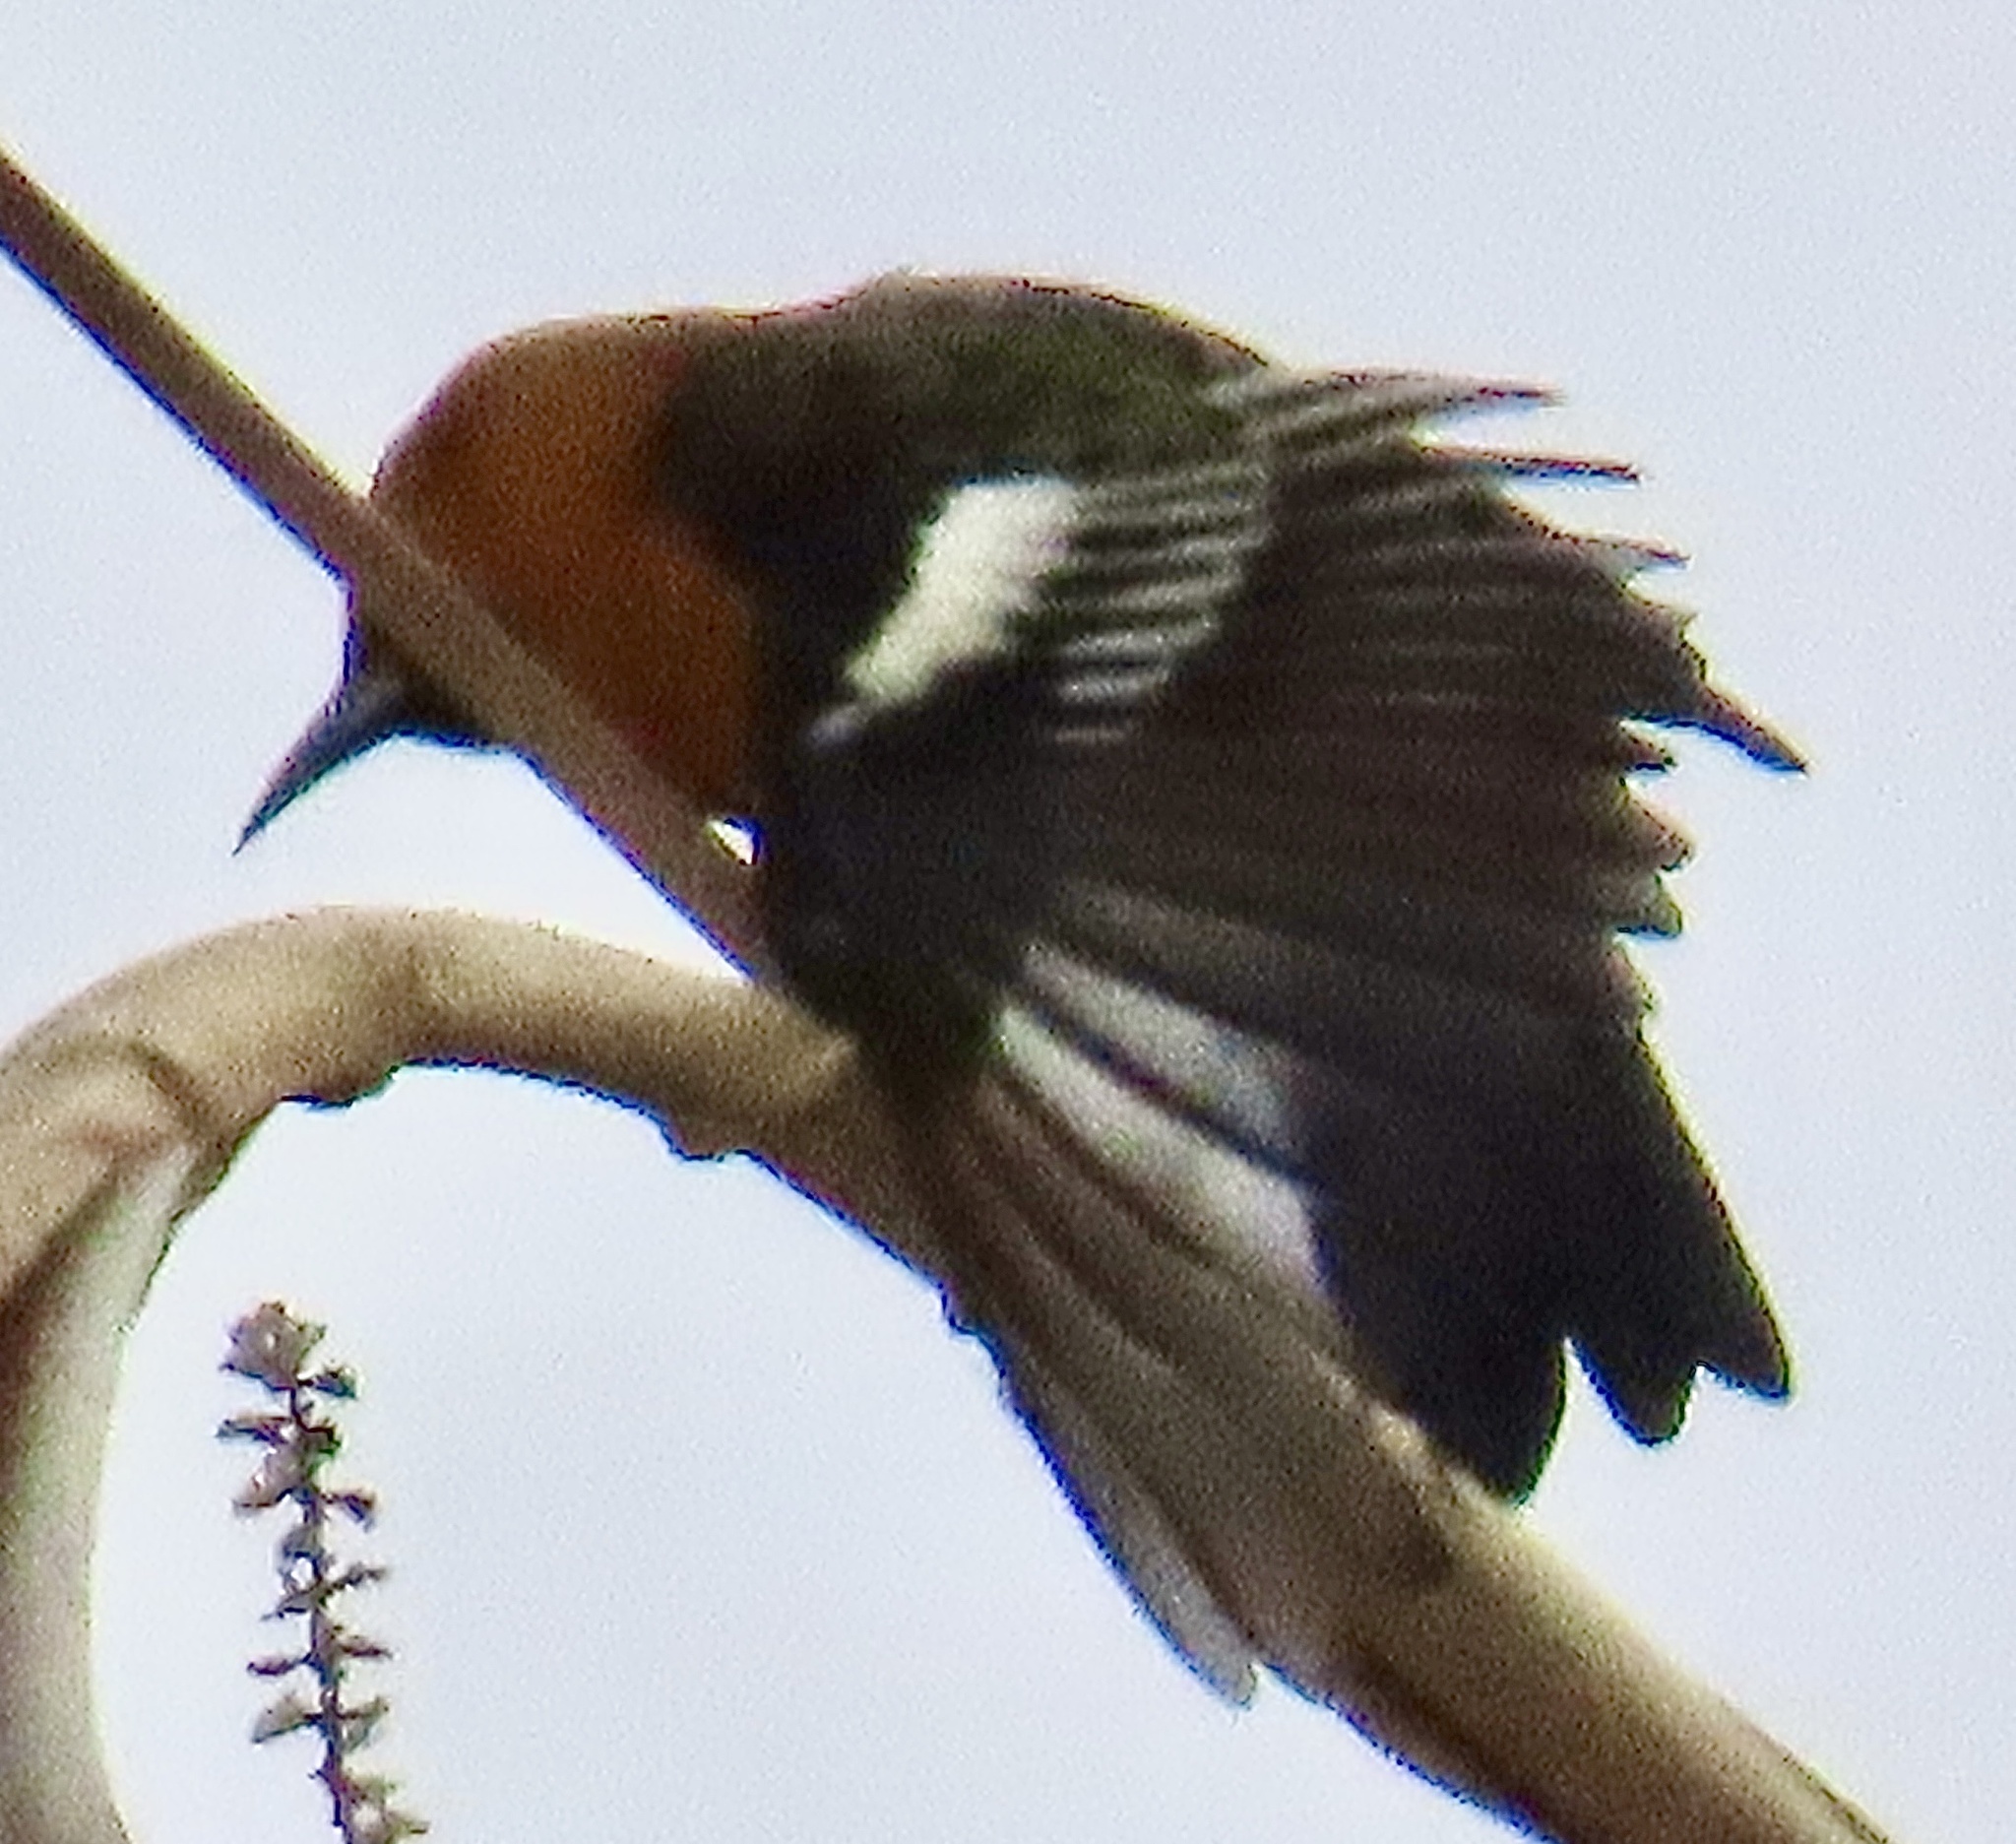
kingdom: Animalia
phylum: Chordata
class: Aves
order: Passeriformes
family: Icteridae
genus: Icterus
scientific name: Icterus cucullatus
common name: Hooded oriole
